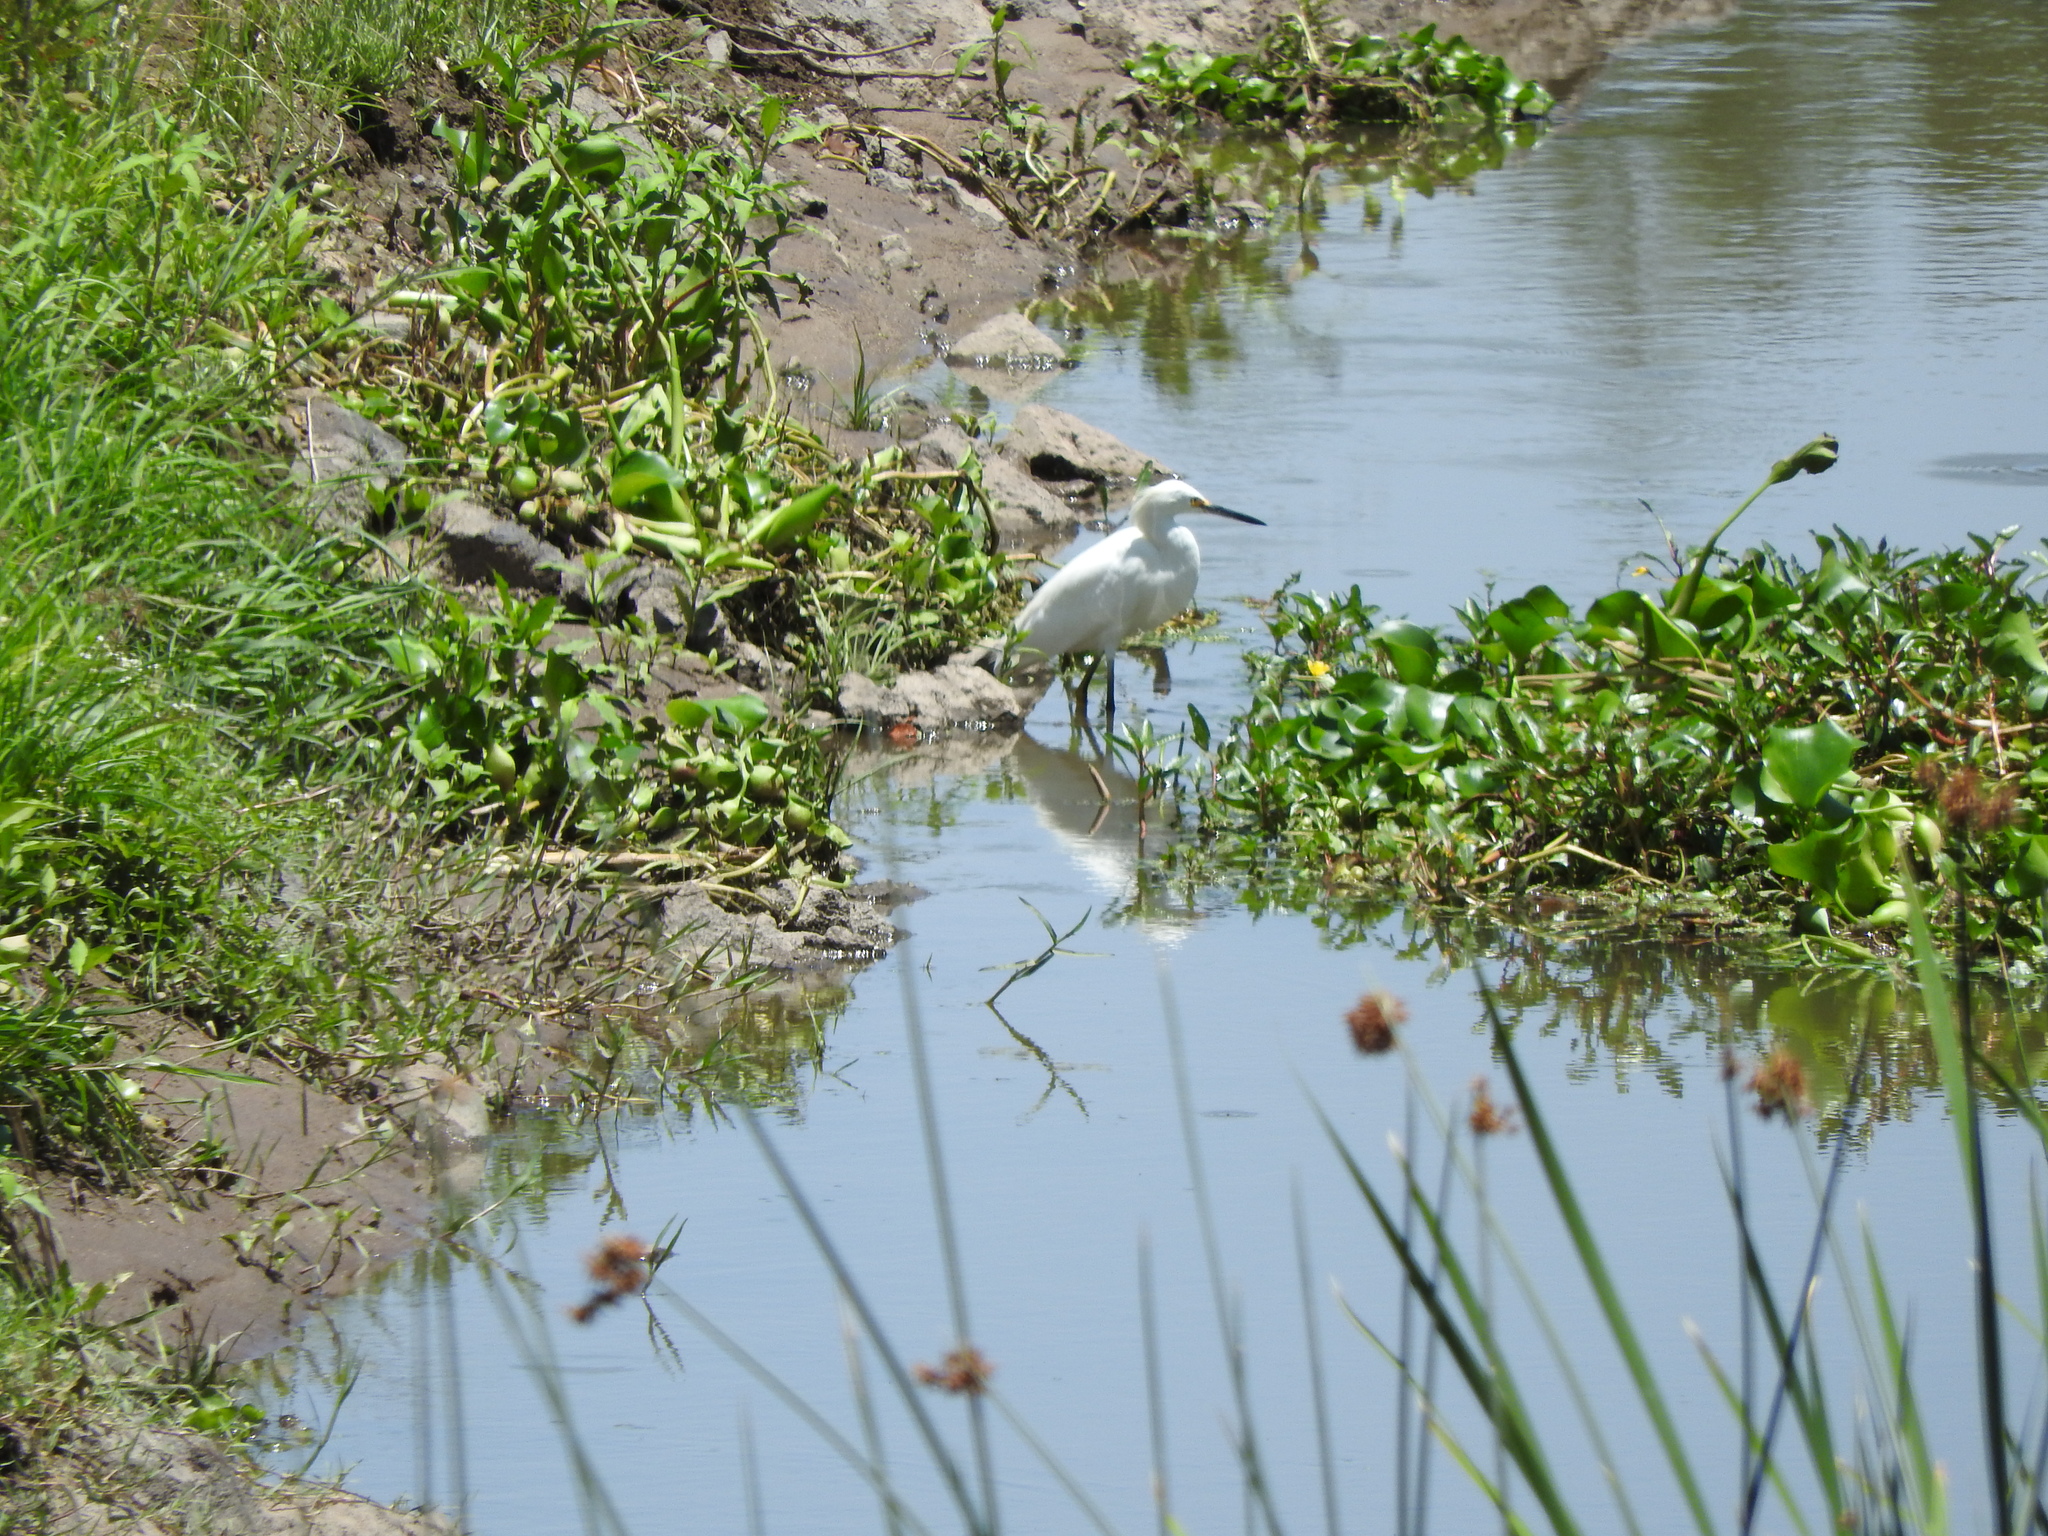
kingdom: Animalia
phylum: Chordata
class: Aves
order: Pelecaniformes
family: Ardeidae
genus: Egretta
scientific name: Egretta thula
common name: Snowy egret
